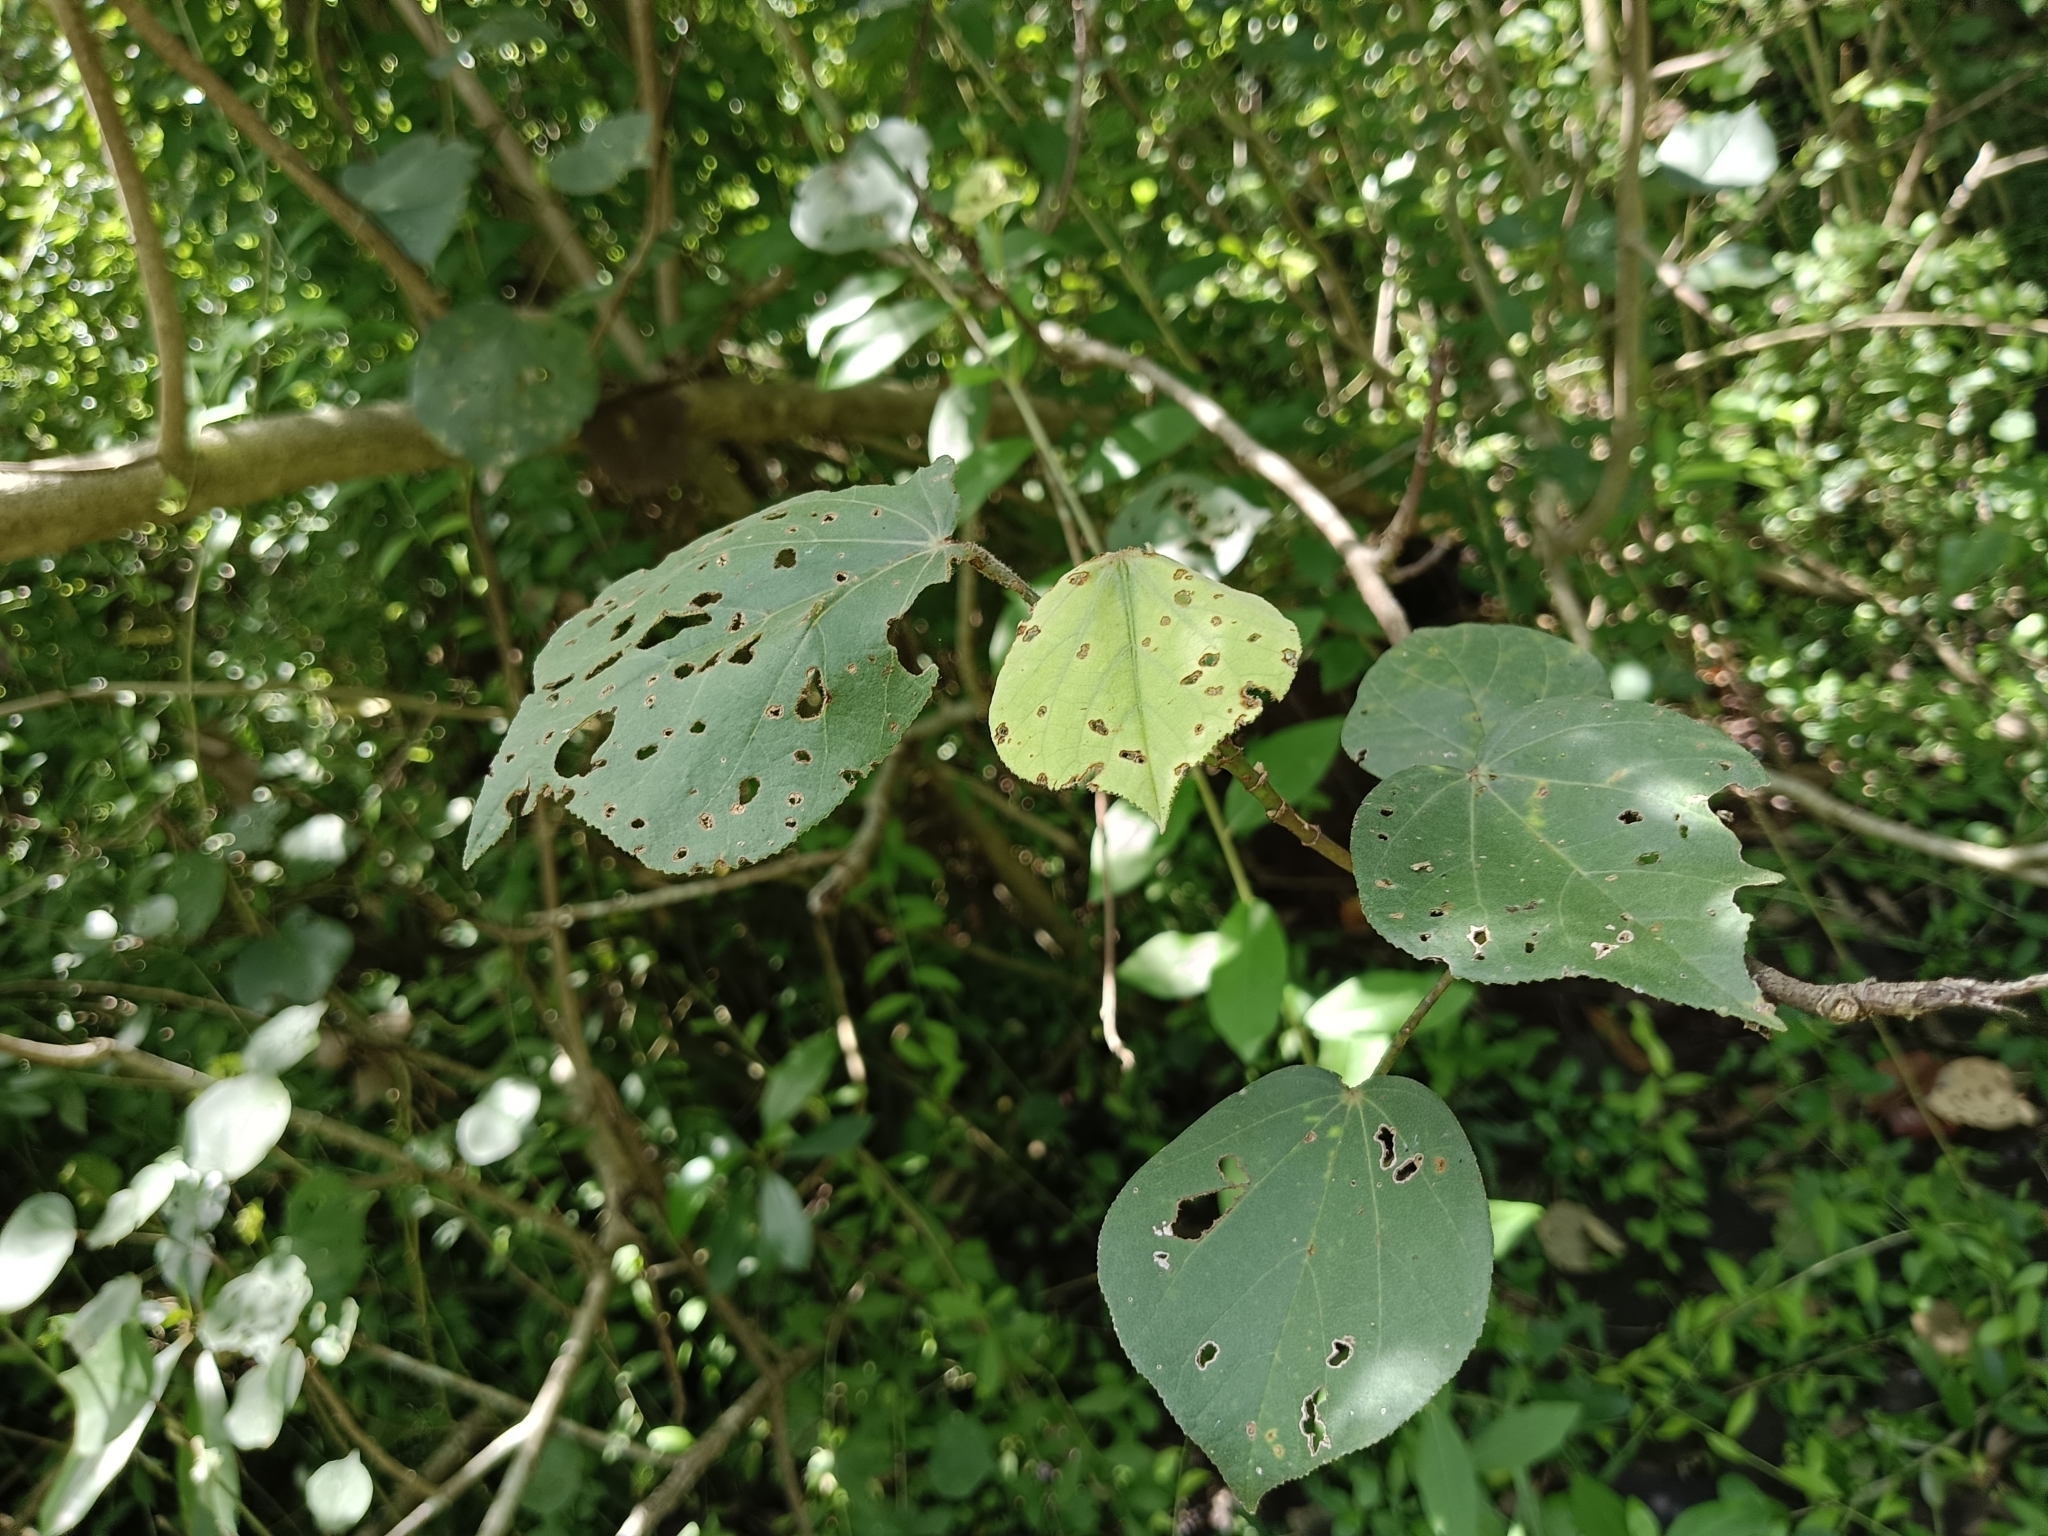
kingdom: Plantae
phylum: Tracheophyta
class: Magnoliopsida
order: Malvales
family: Malvaceae
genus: Talipariti
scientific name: Talipariti tiliaceum
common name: Sea hibiscus
